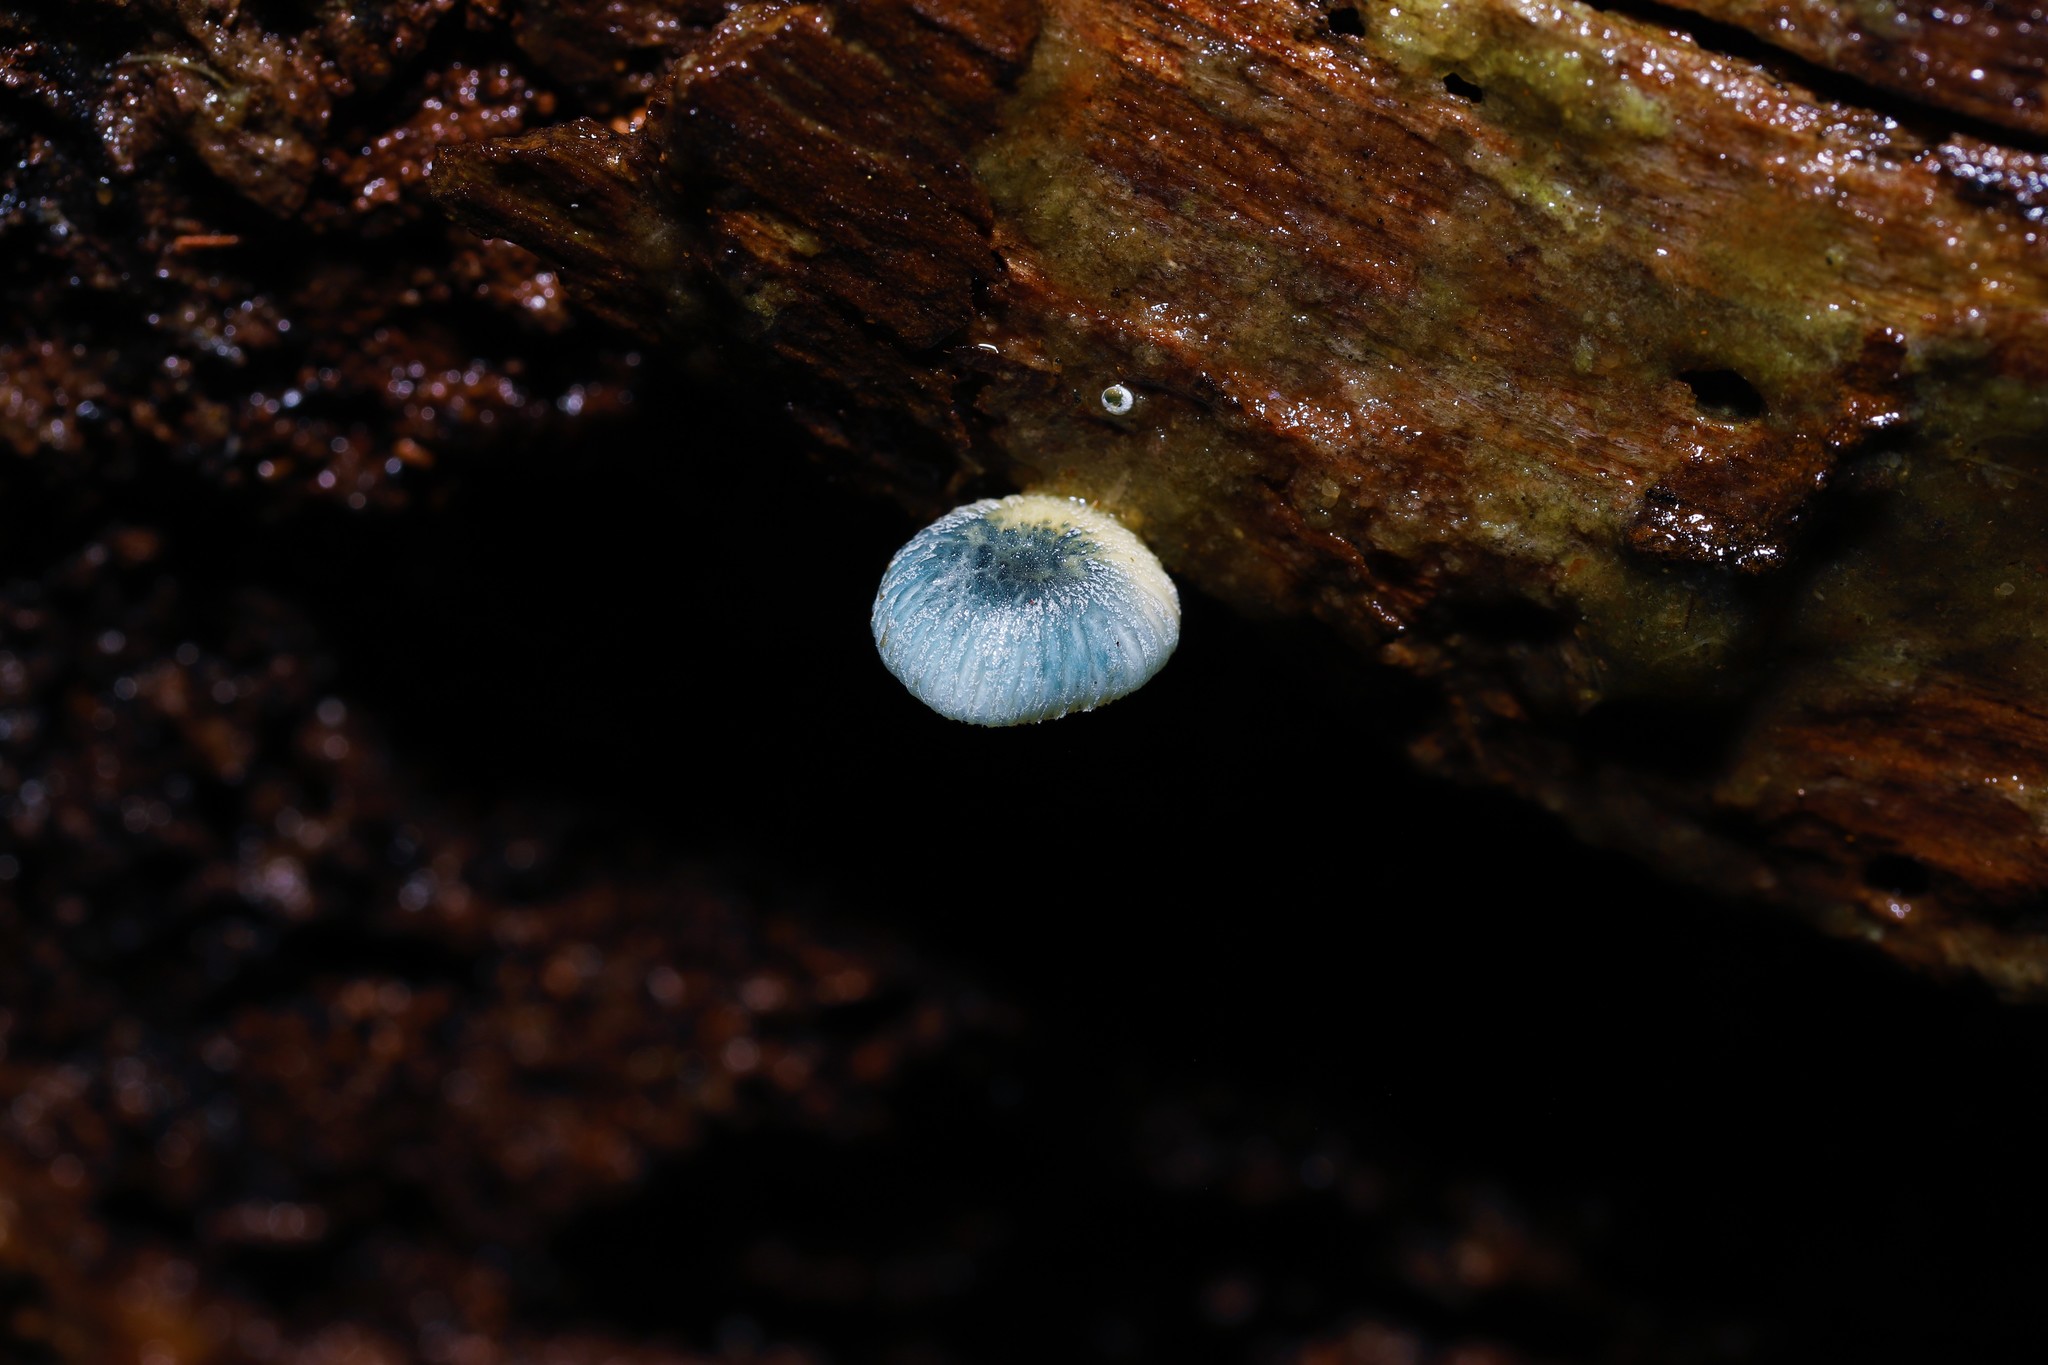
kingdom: Fungi
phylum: Basidiomycota
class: Agaricomycetes
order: Agaricales
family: Mycenaceae
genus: Mycena
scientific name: Mycena interrupta
